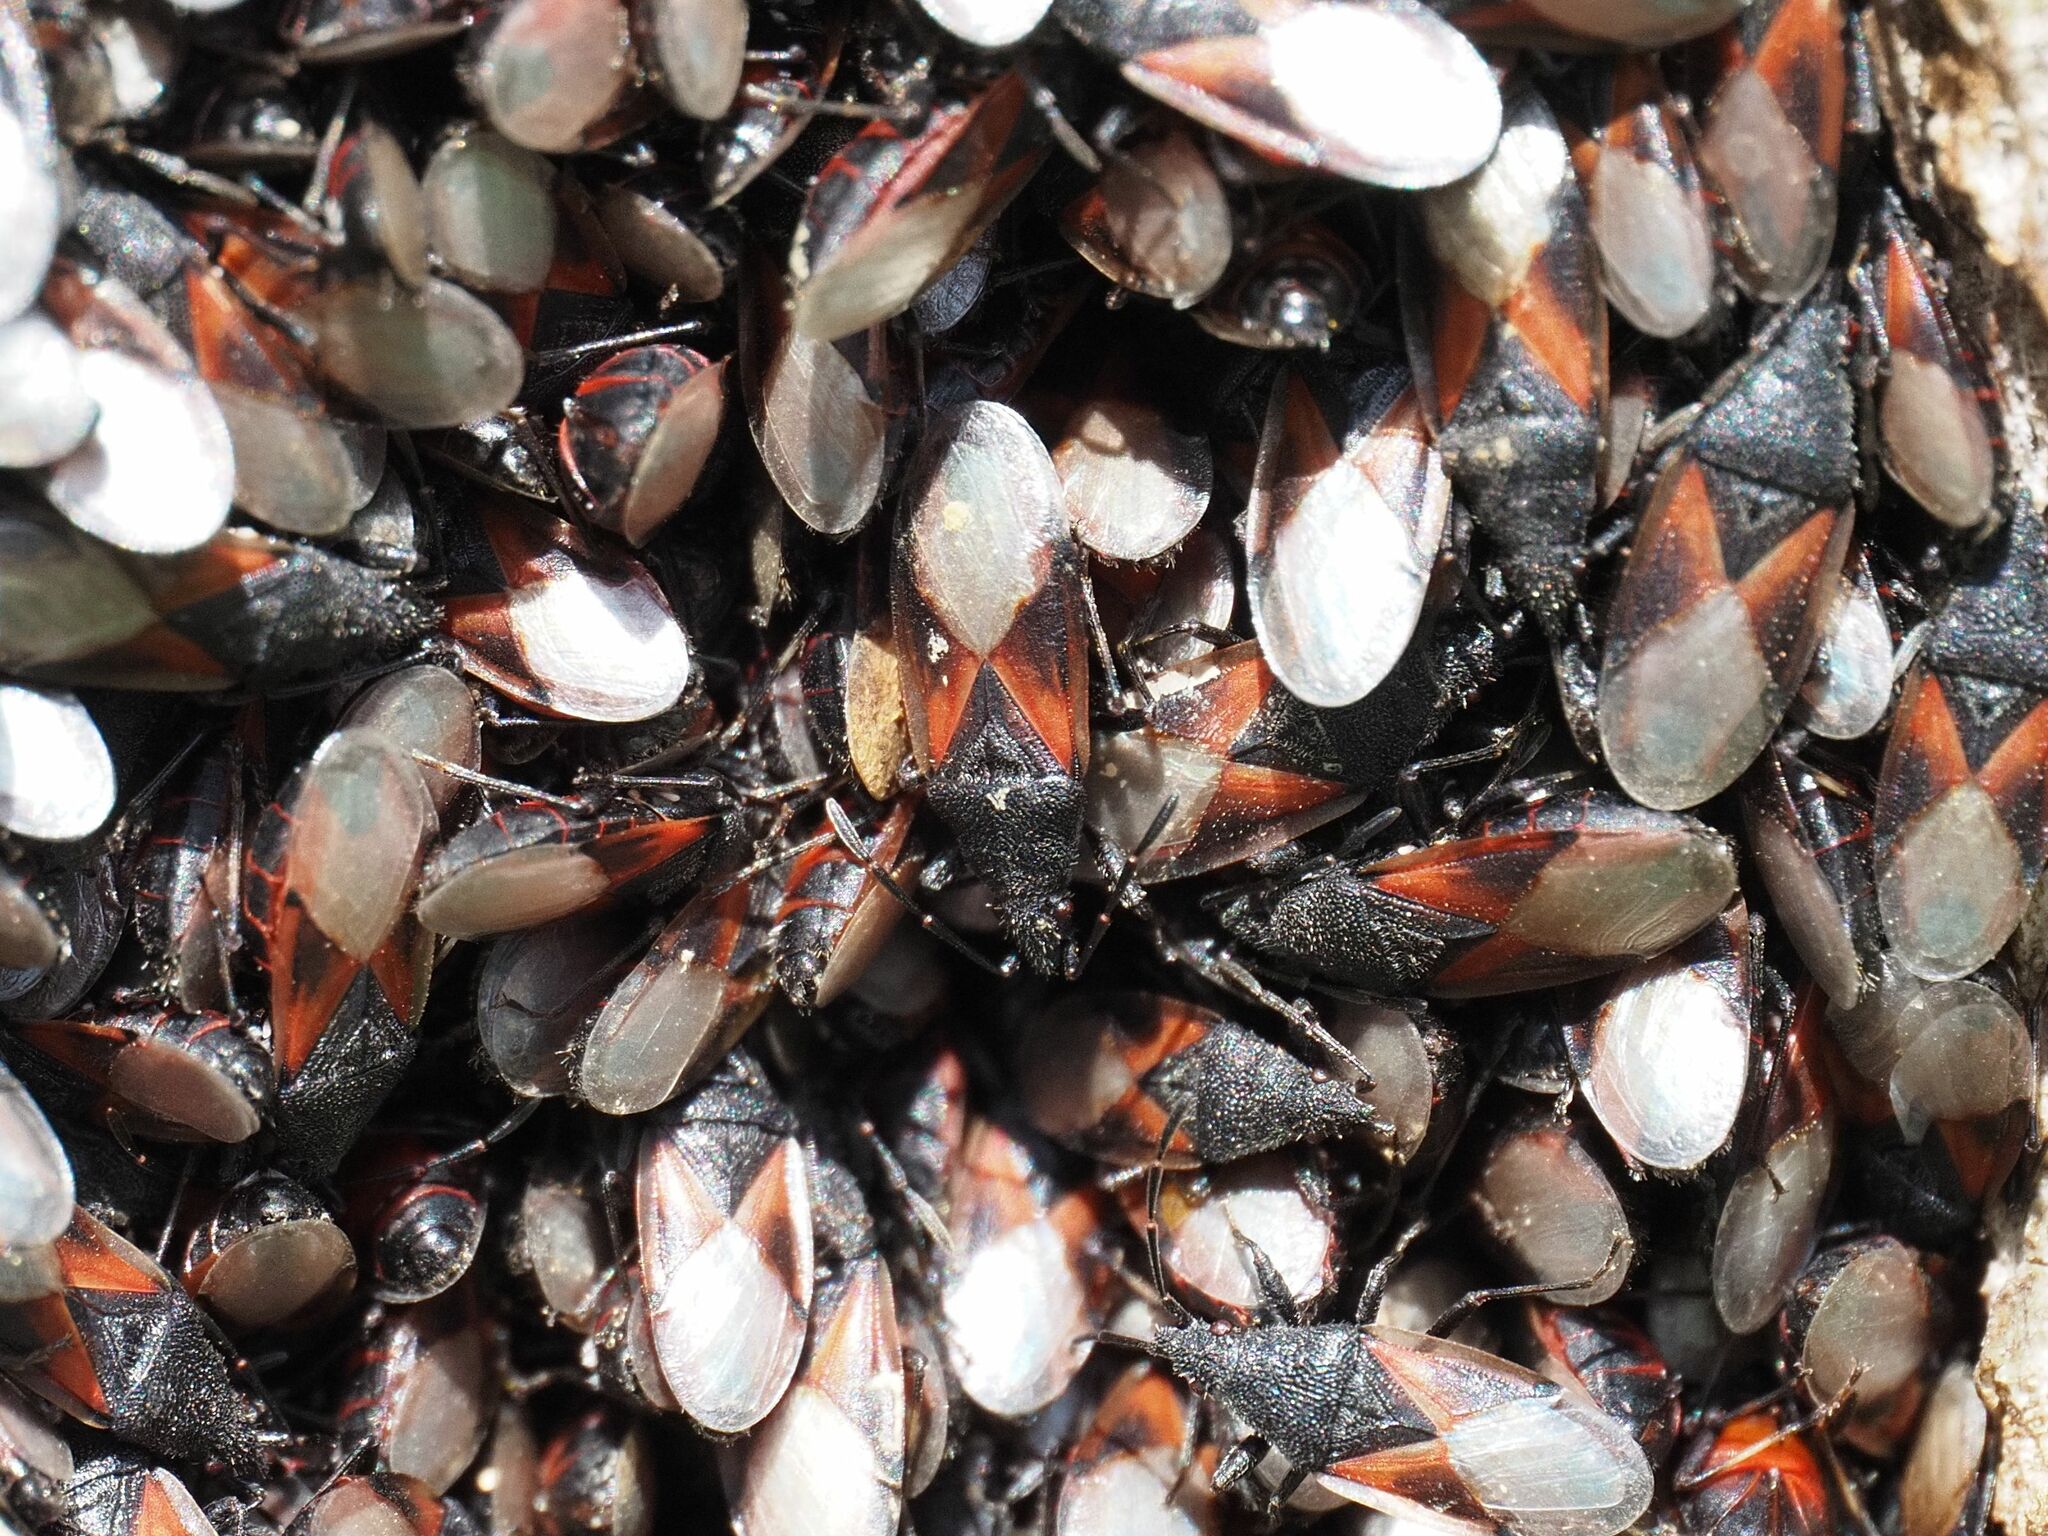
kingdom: Animalia
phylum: Arthropoda
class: Insecta
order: Hemiptera
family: Oxycarenidae
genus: Oxycarenus
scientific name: Oxycarenus lavaterae
